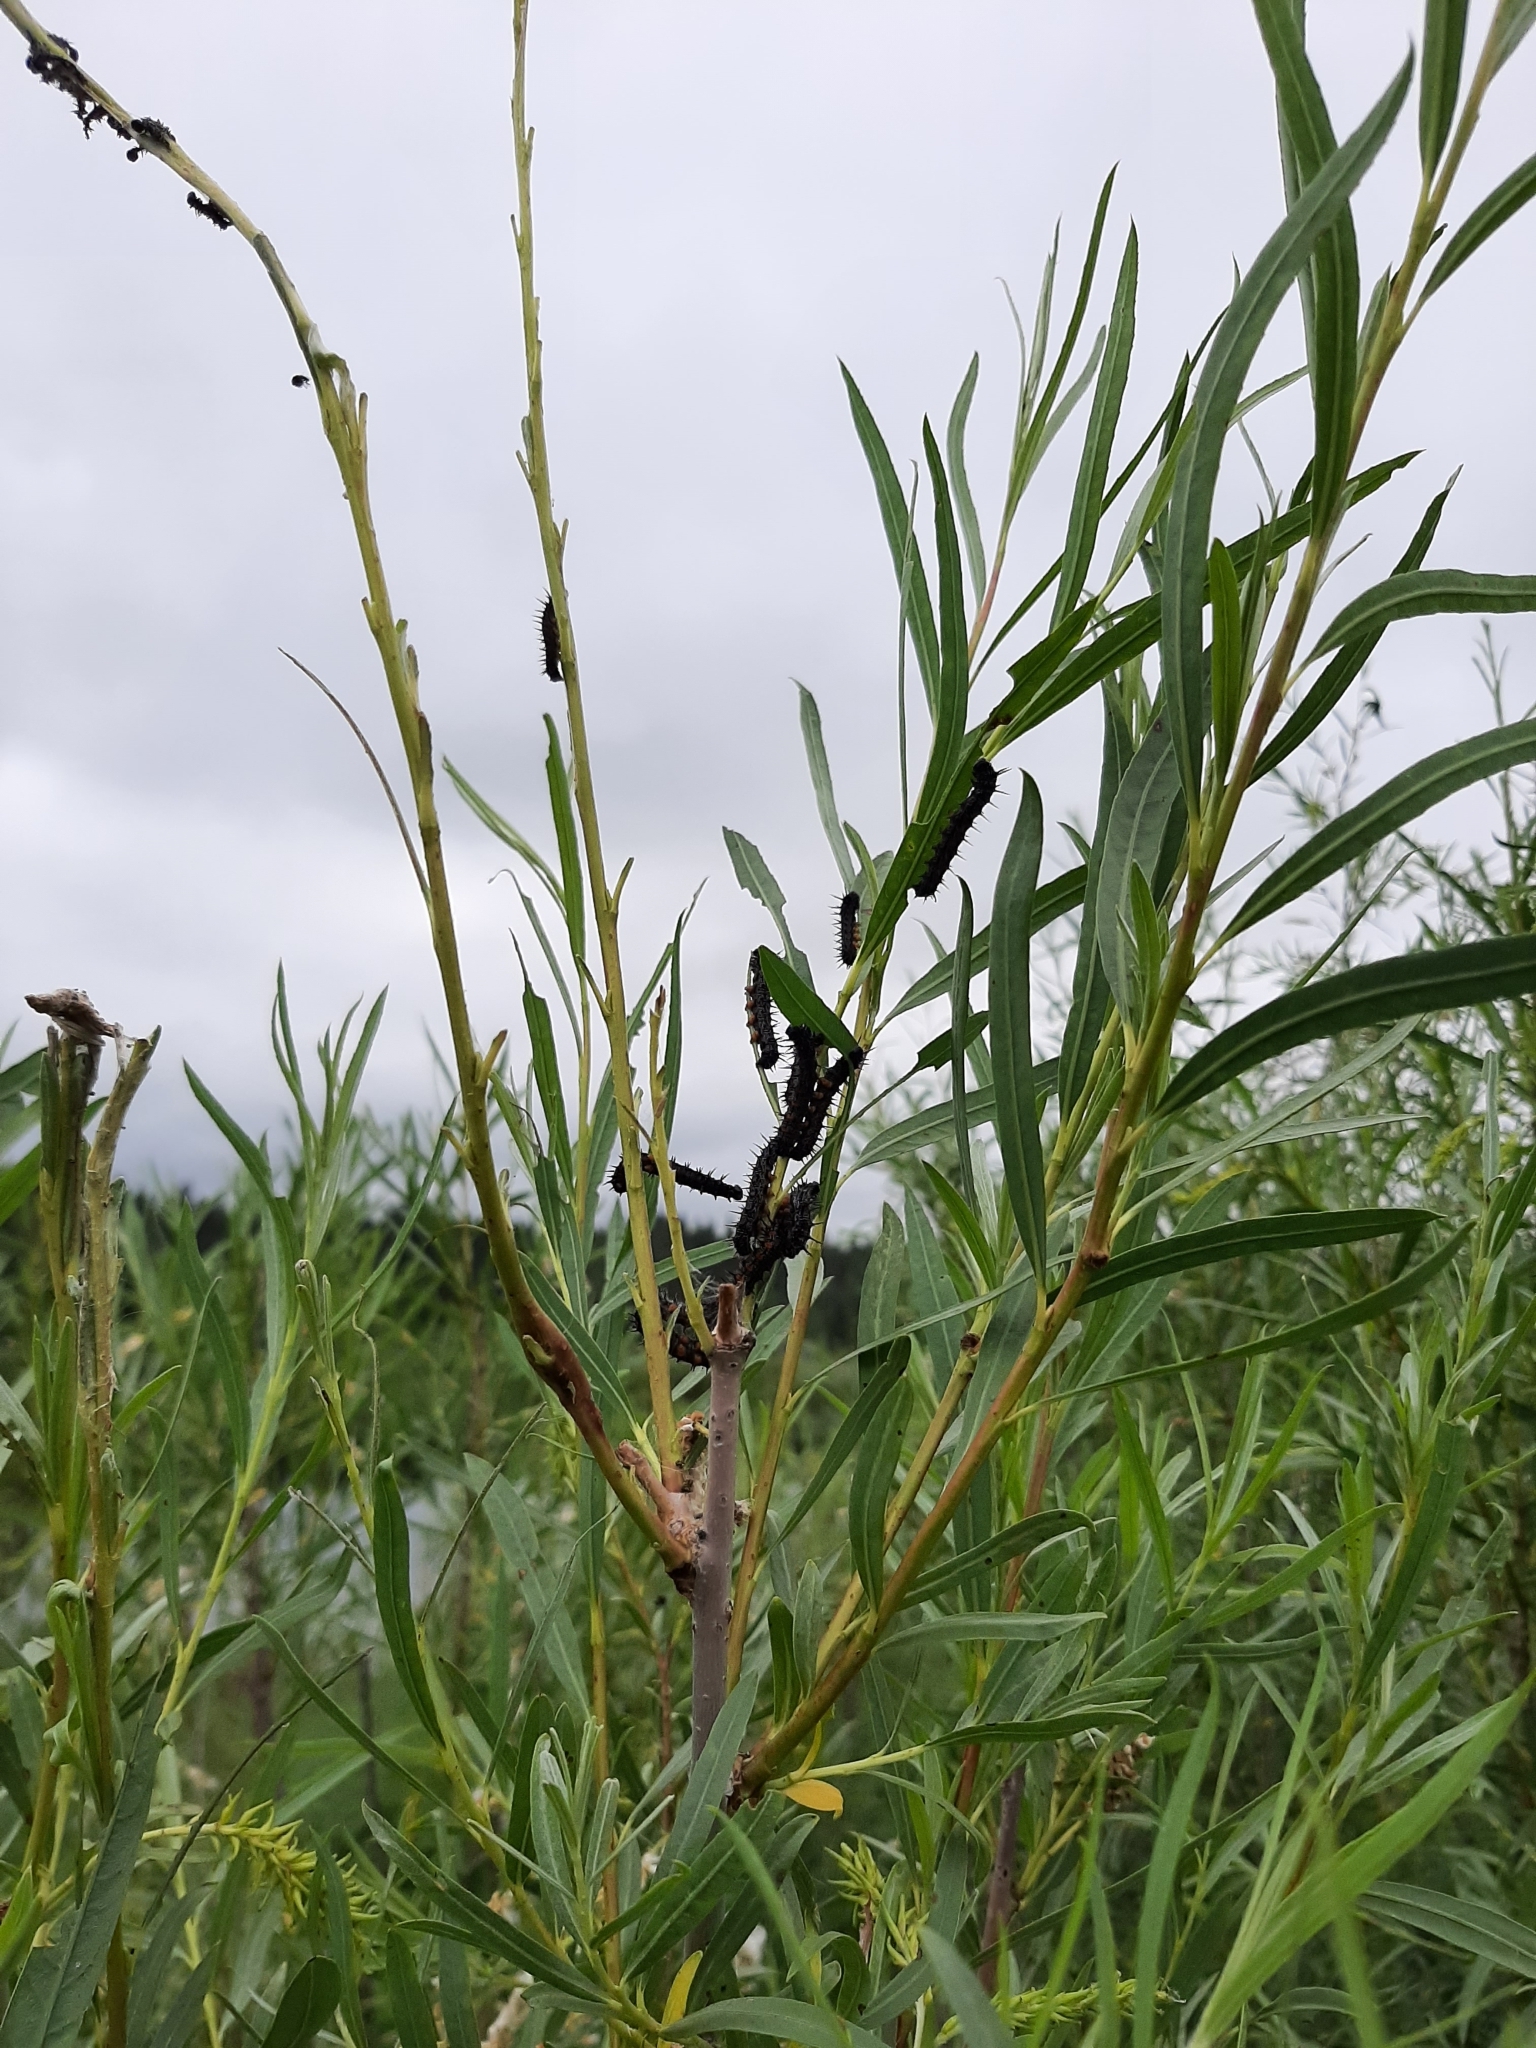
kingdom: Animalia
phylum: Arthropoda
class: Insecta
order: Lepidoptera
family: Nymphalidae
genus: Nymphalis
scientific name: Nymphalis antiopa
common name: Camberwell beauty
